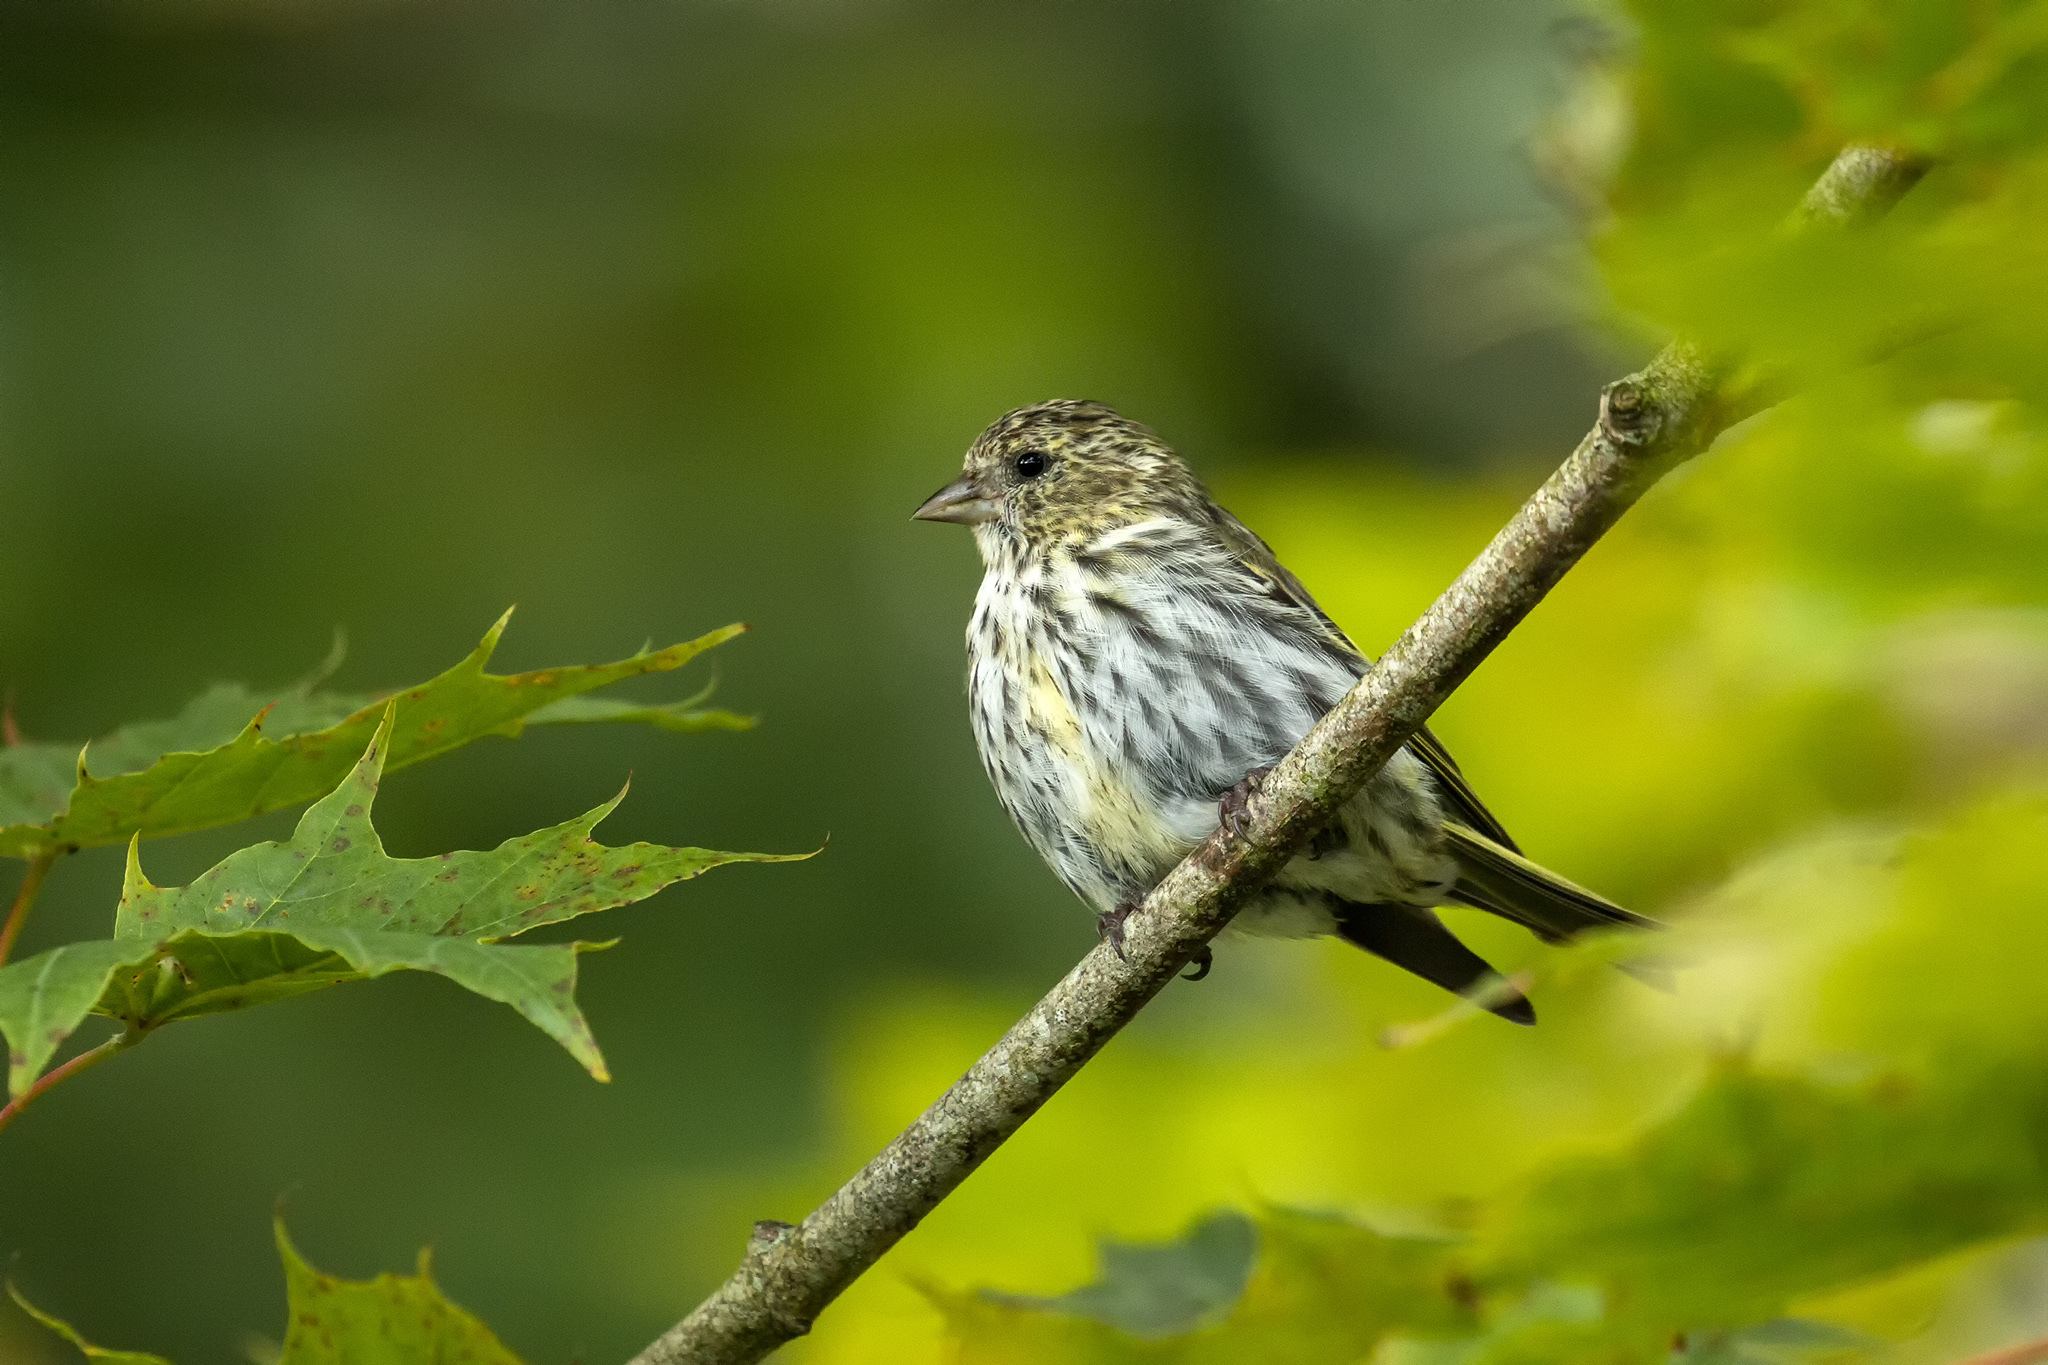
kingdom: Animalia
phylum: Chordata
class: Aves
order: Passeriformes
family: Fringillidae
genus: Spinus
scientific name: Spinus spinus
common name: Eurasian siskin
